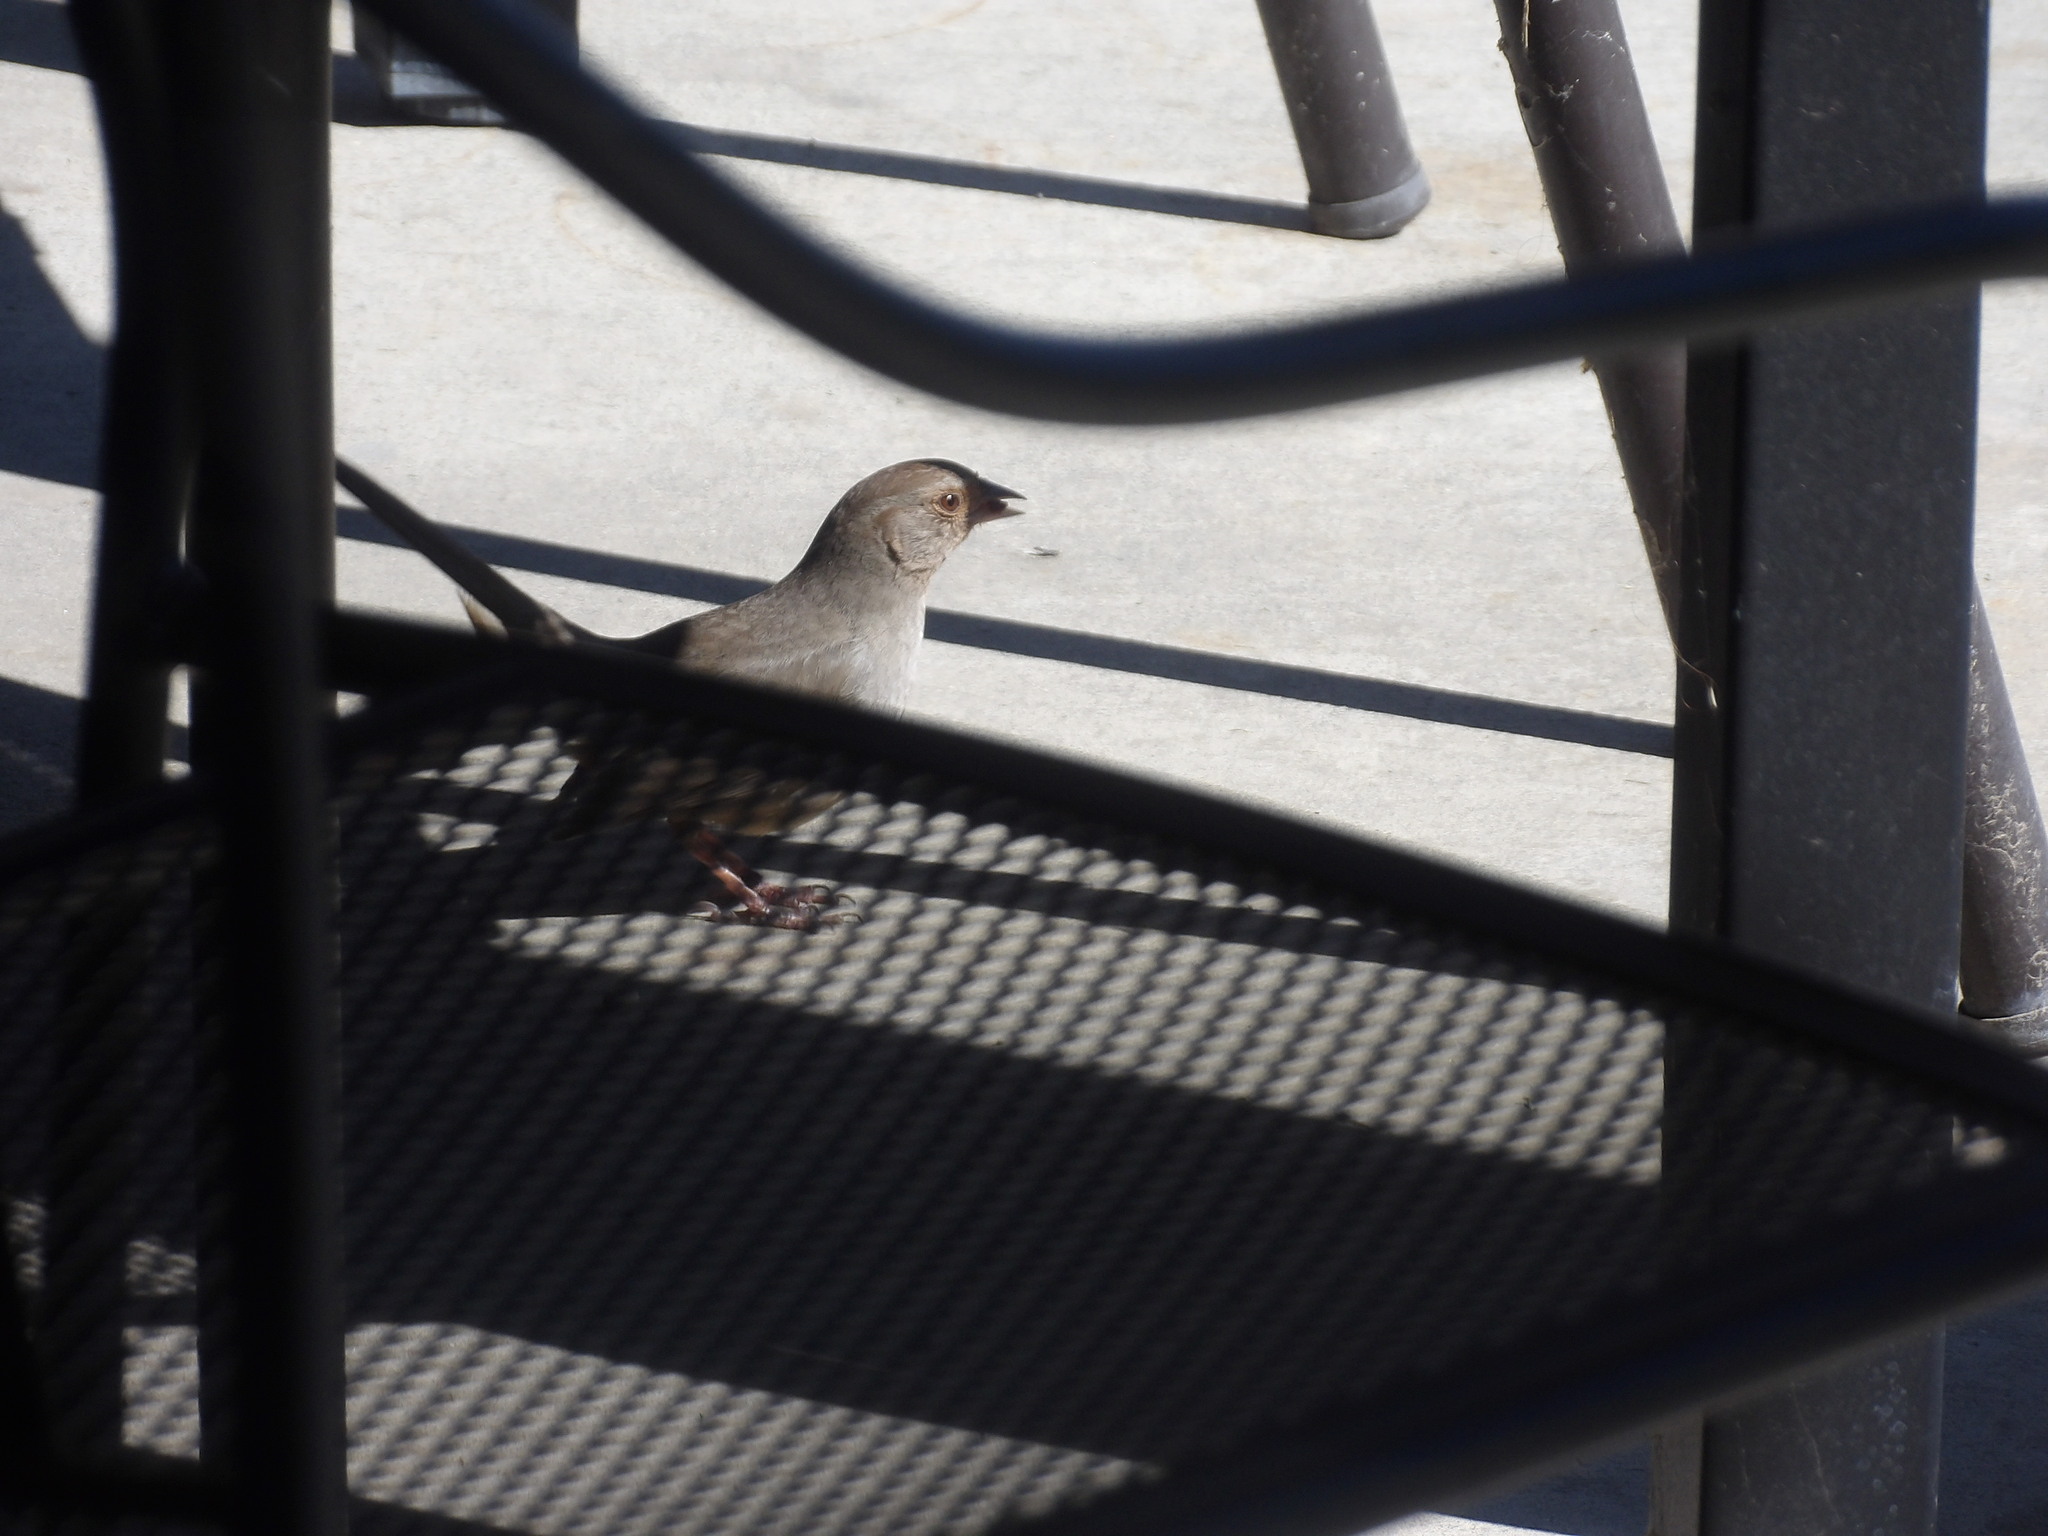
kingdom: Animalia
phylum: Chordata
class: Aves
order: Passeriformes
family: Passerellidae
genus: Melozone
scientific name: Melozone crissalis
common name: California towhee
